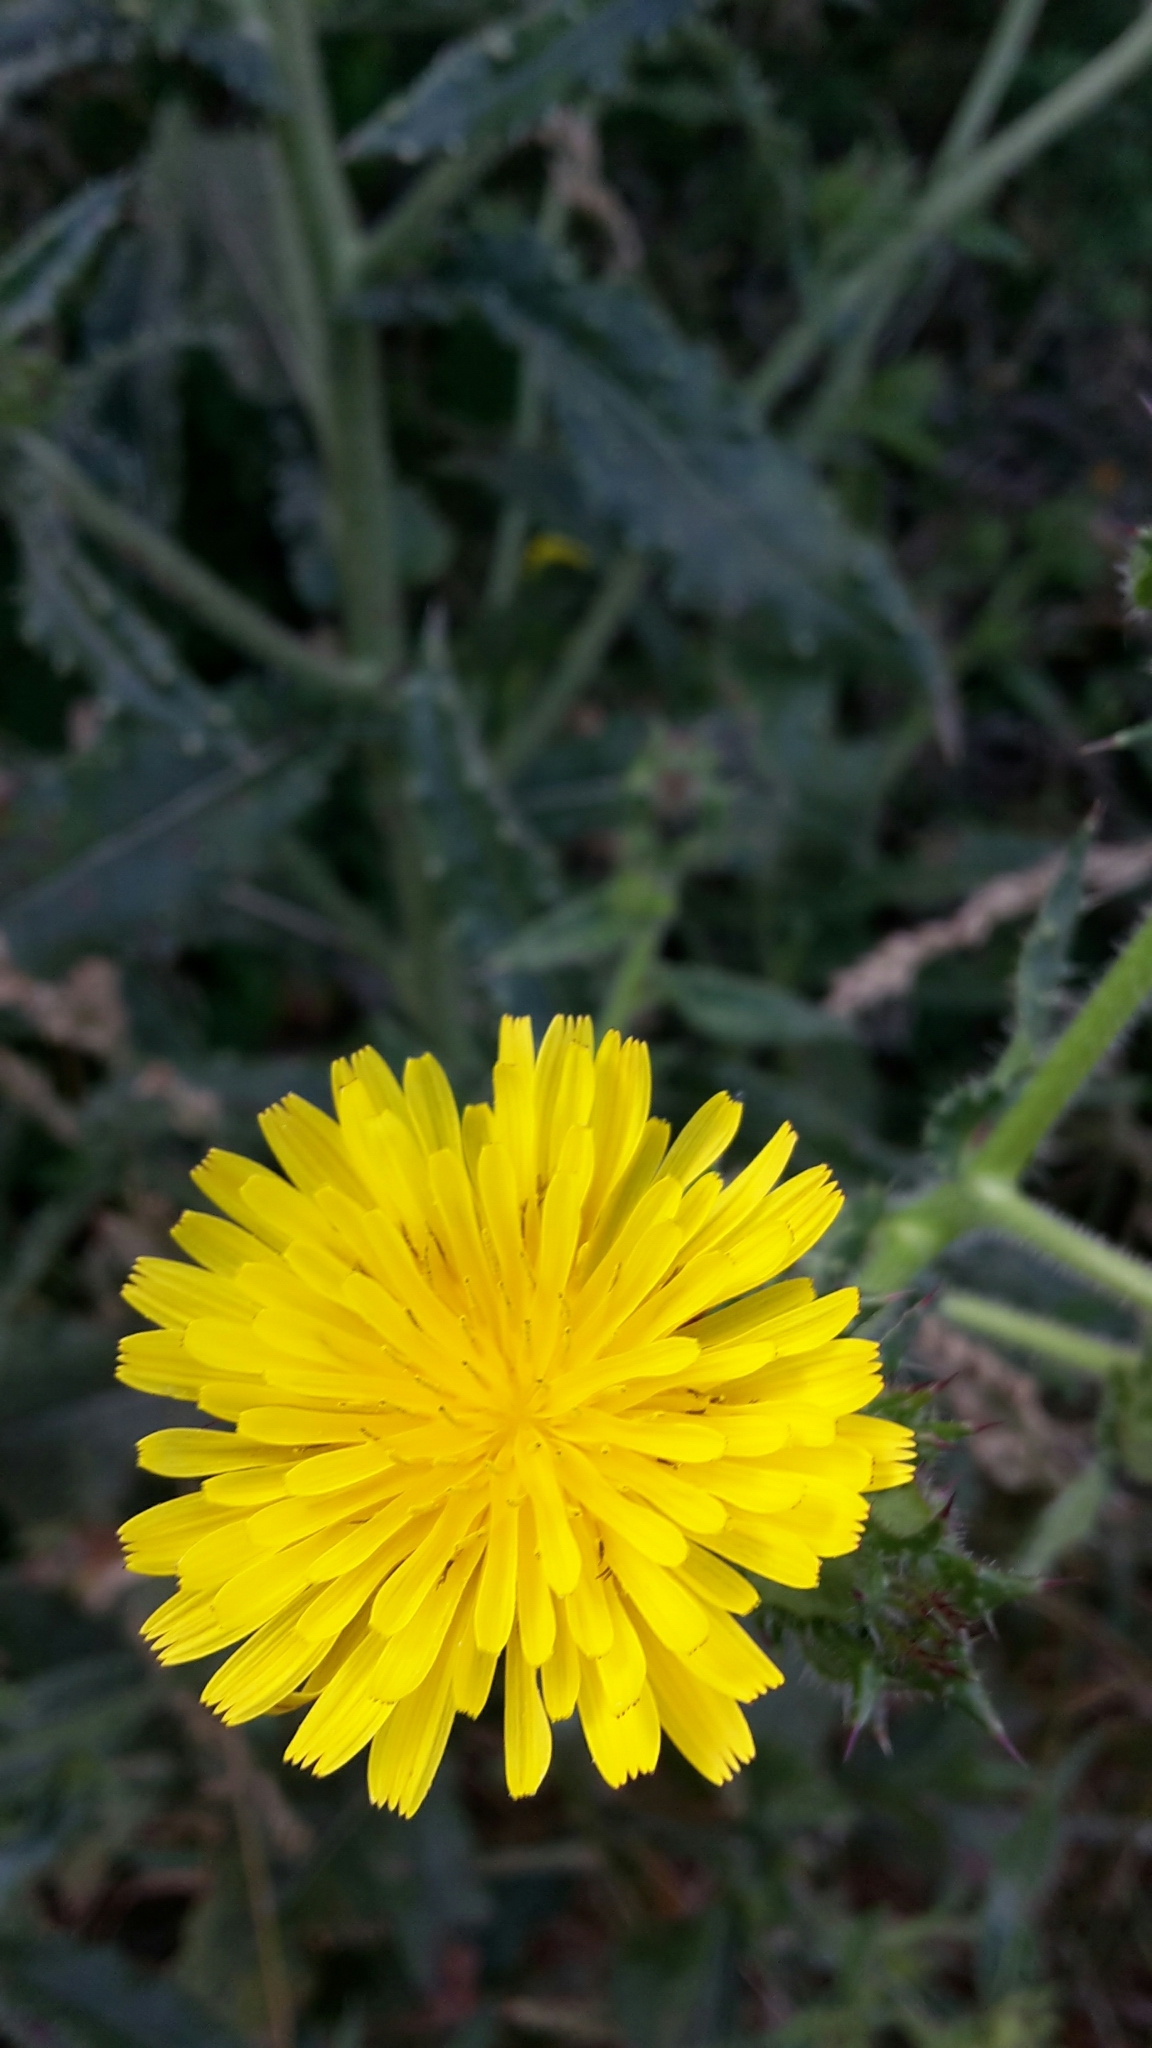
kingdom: Plantae
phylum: Tracheophyta
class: Magnoliopsida
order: Asterales
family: Asteraceae
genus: Helminthotheca
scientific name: Helminthotheca echioides
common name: Ox-tongue
